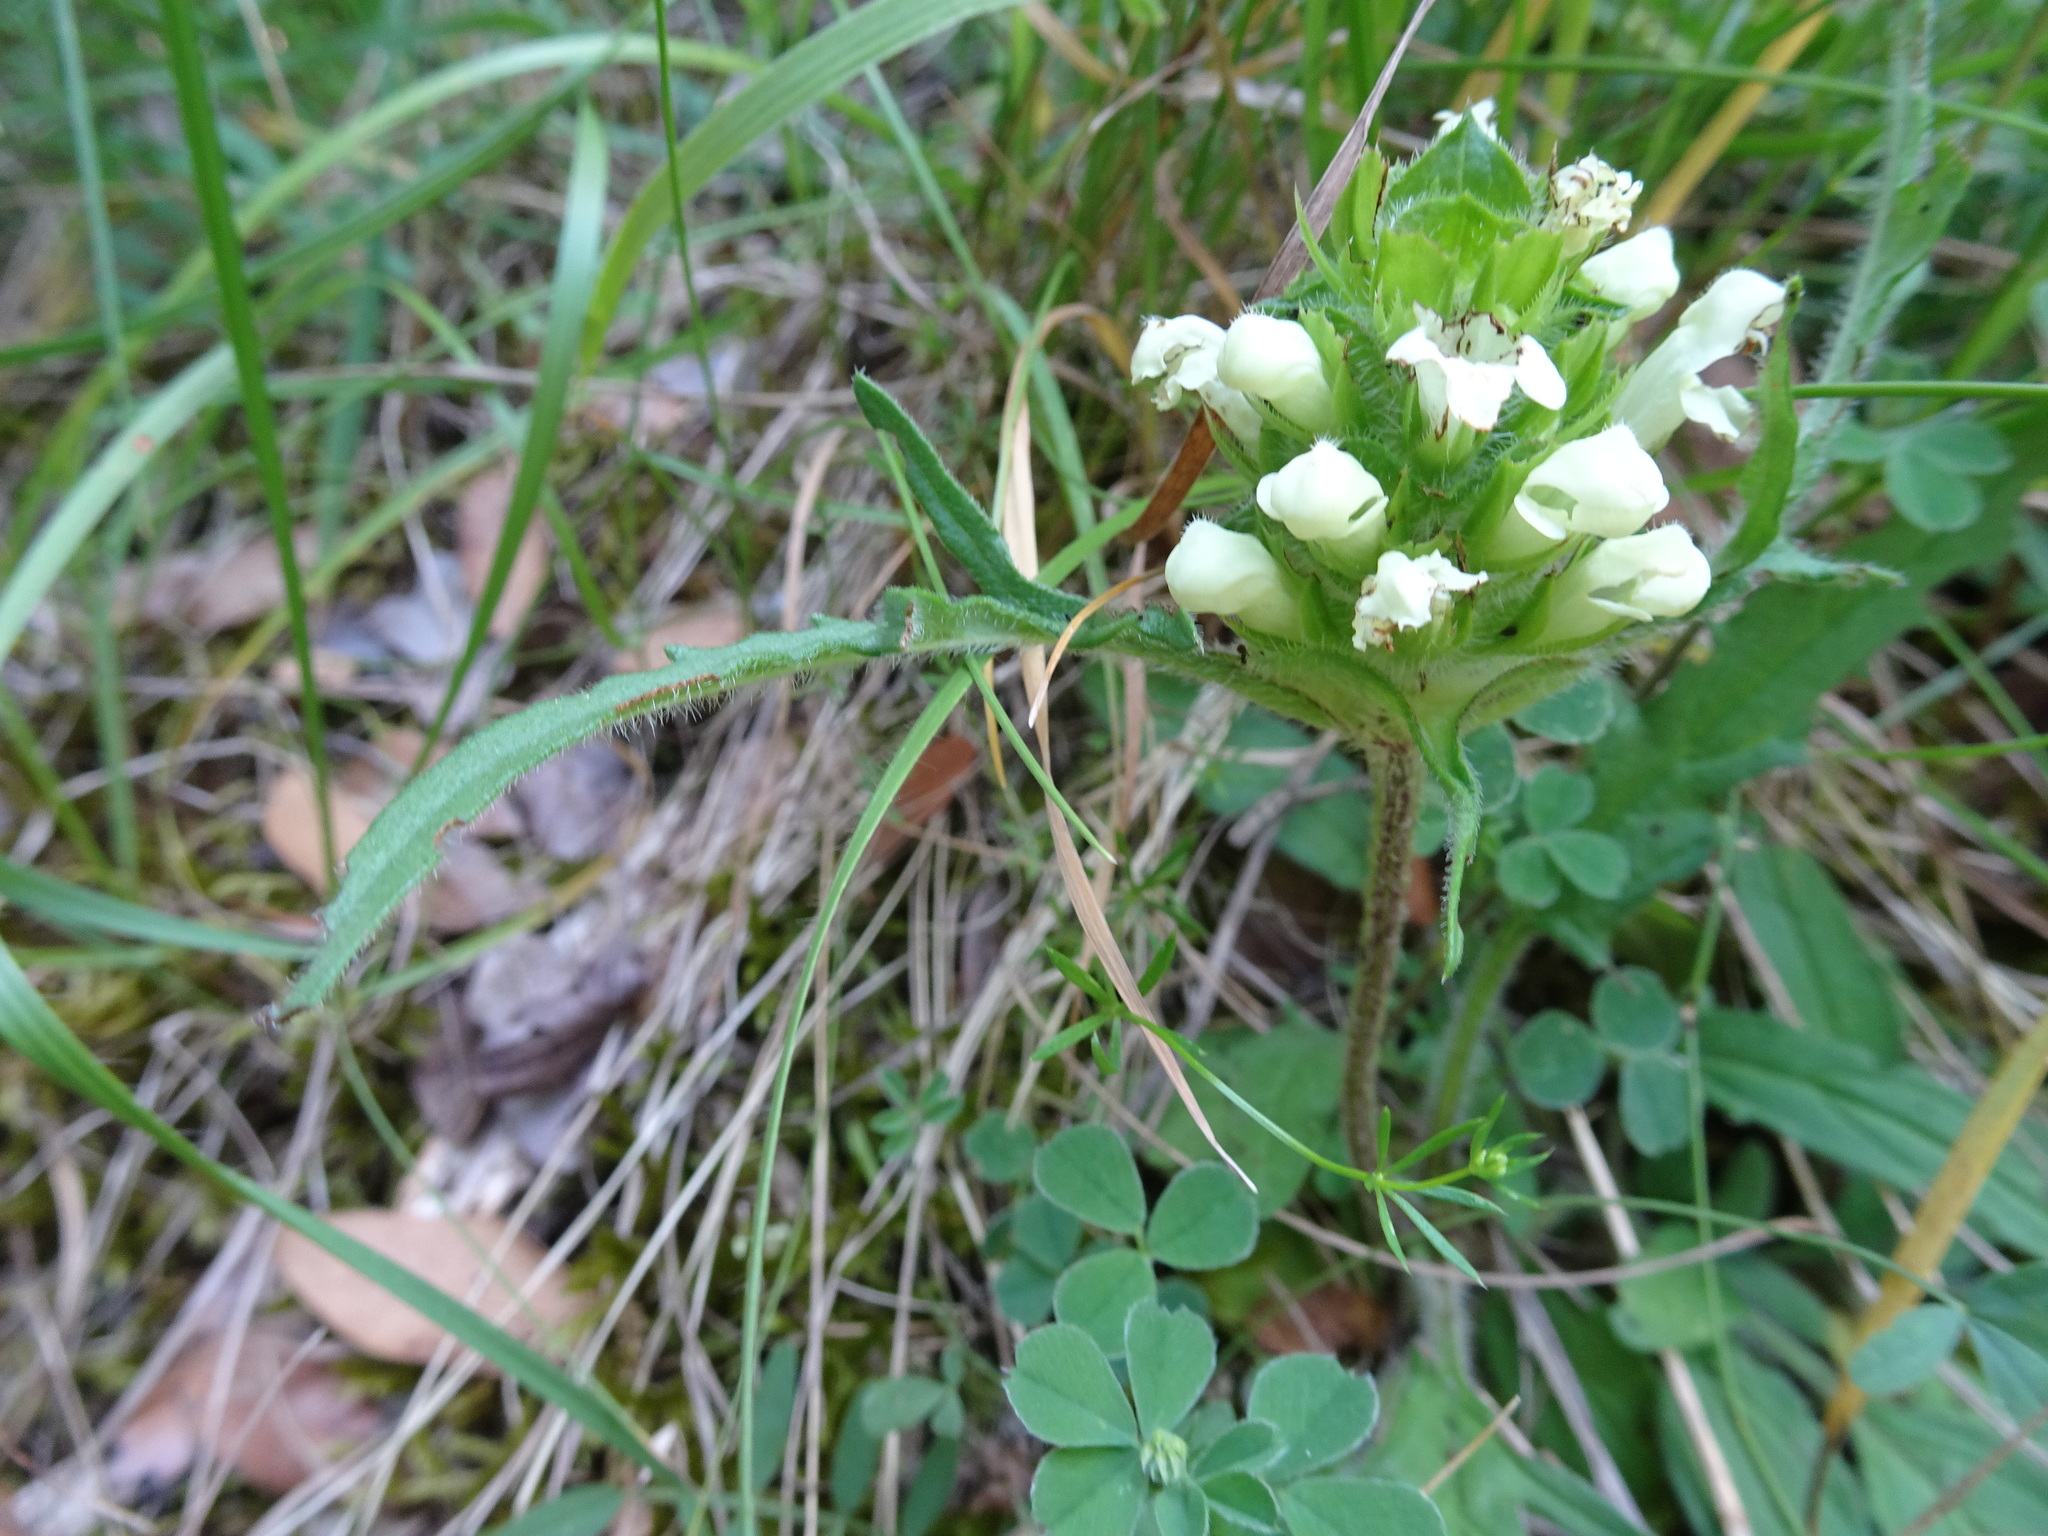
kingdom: Plantae
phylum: Tracheophyta
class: Magnoliopsida
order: Lamiales
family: Lamiaceae
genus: Prunella
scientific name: Prunella laciniata
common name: Cut-leaved selfheal
